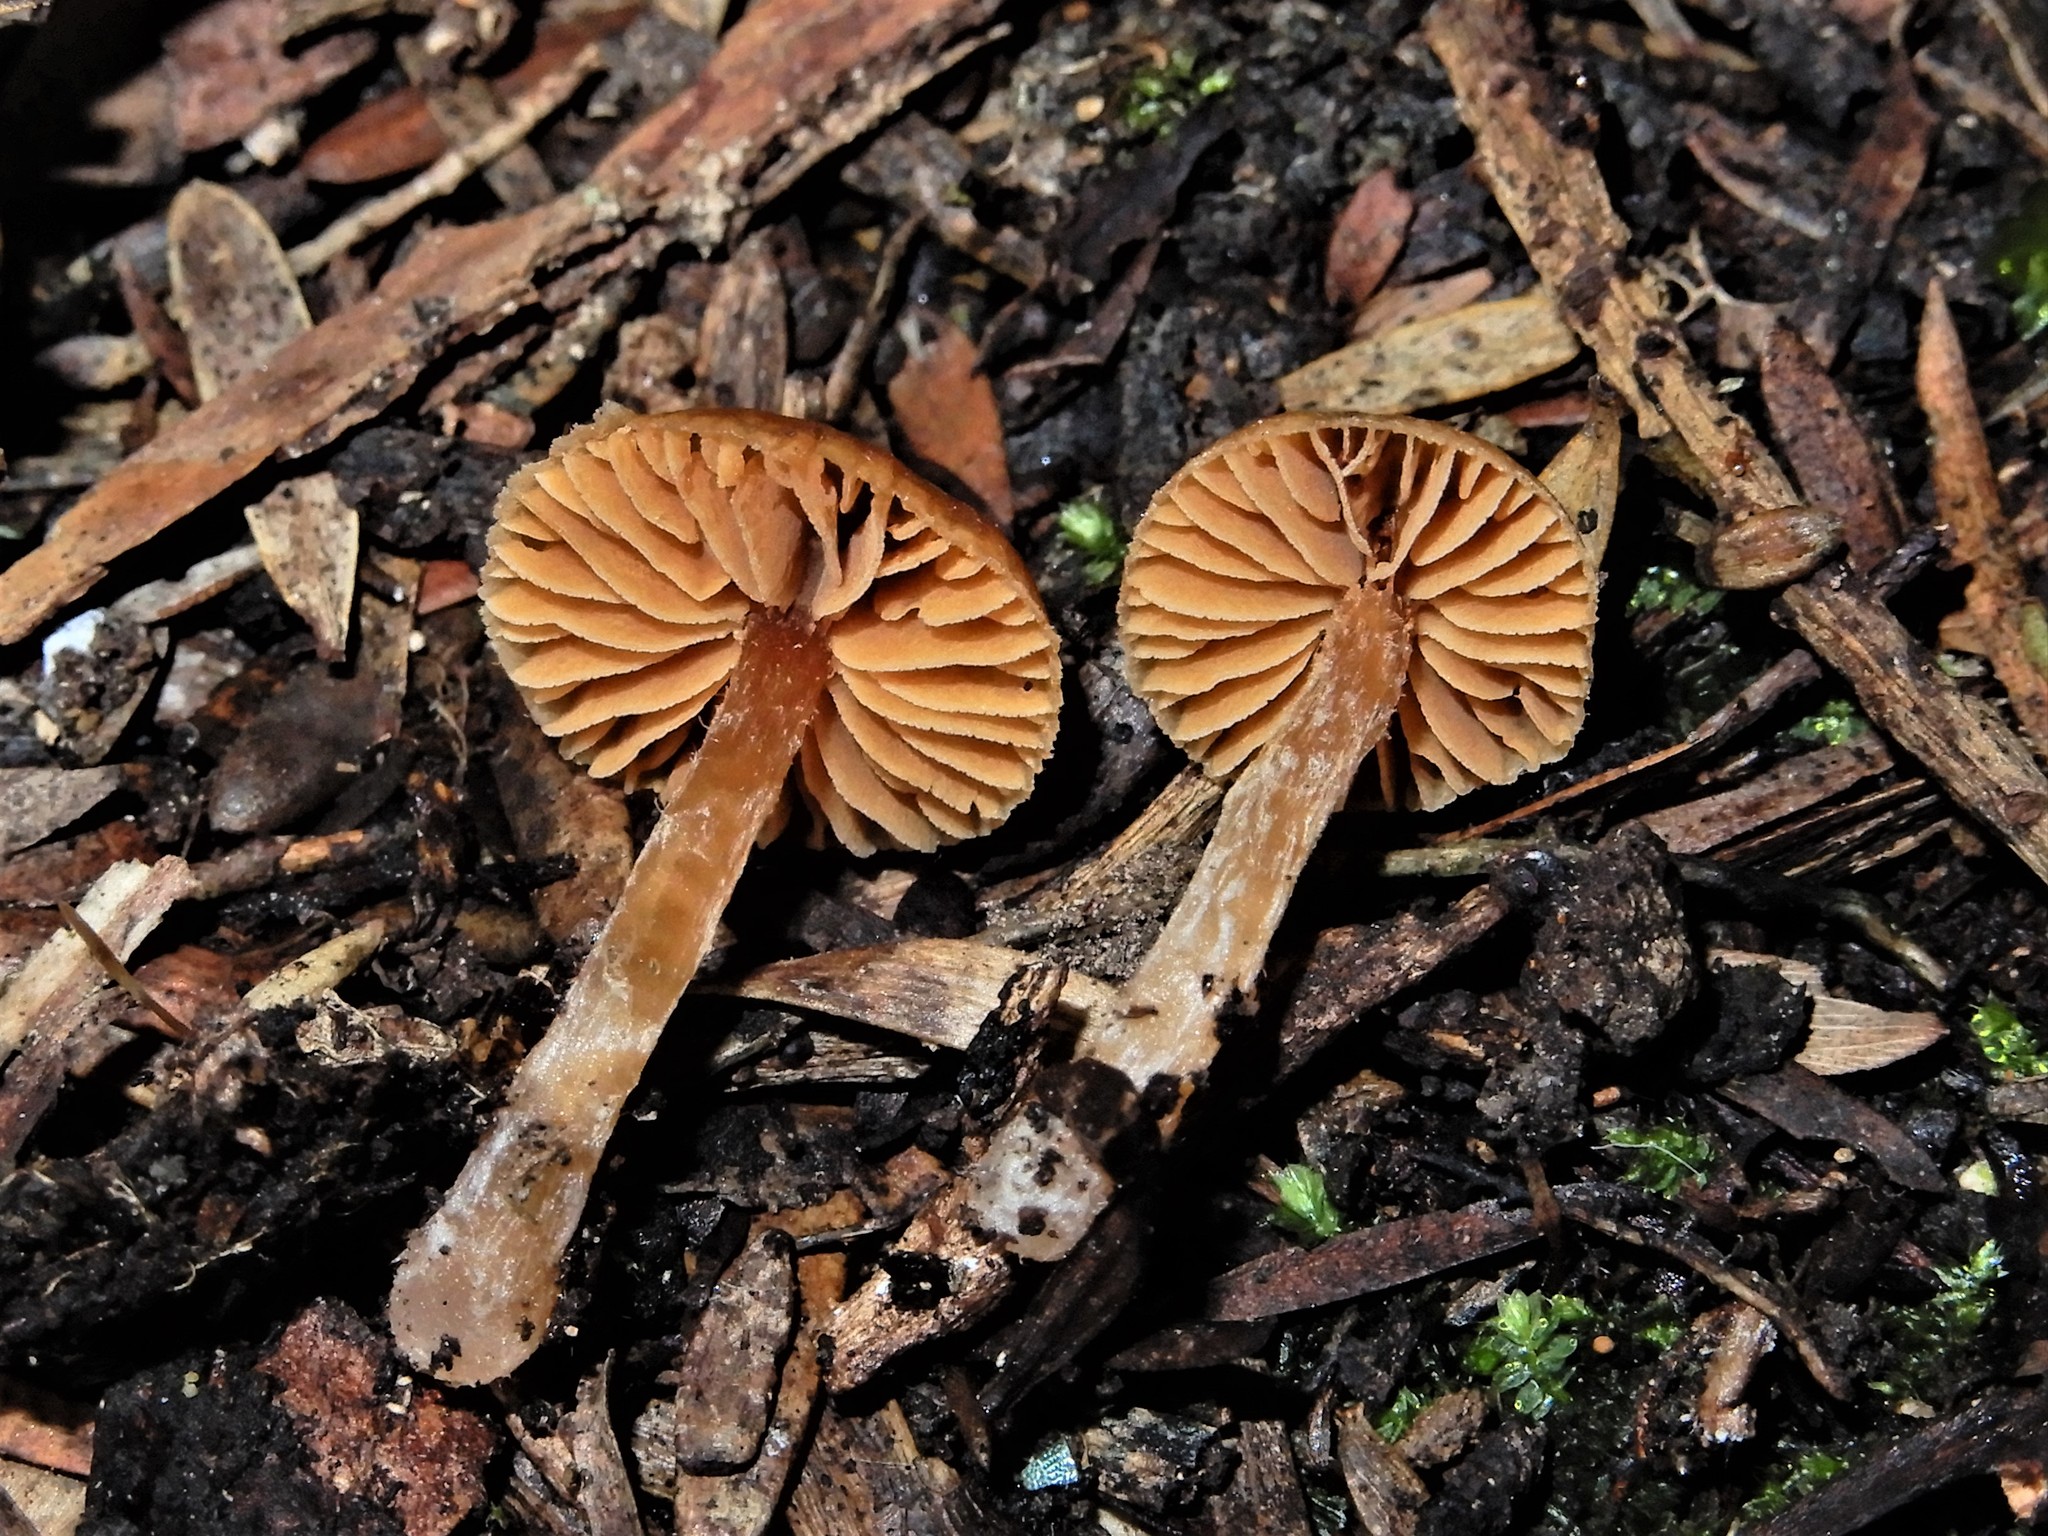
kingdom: Fungi
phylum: Basidiomycota
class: Agaricomycetes
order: Agaricales
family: Cortinariaceae
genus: Cortinarius
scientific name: Cortinarius waiporianus
